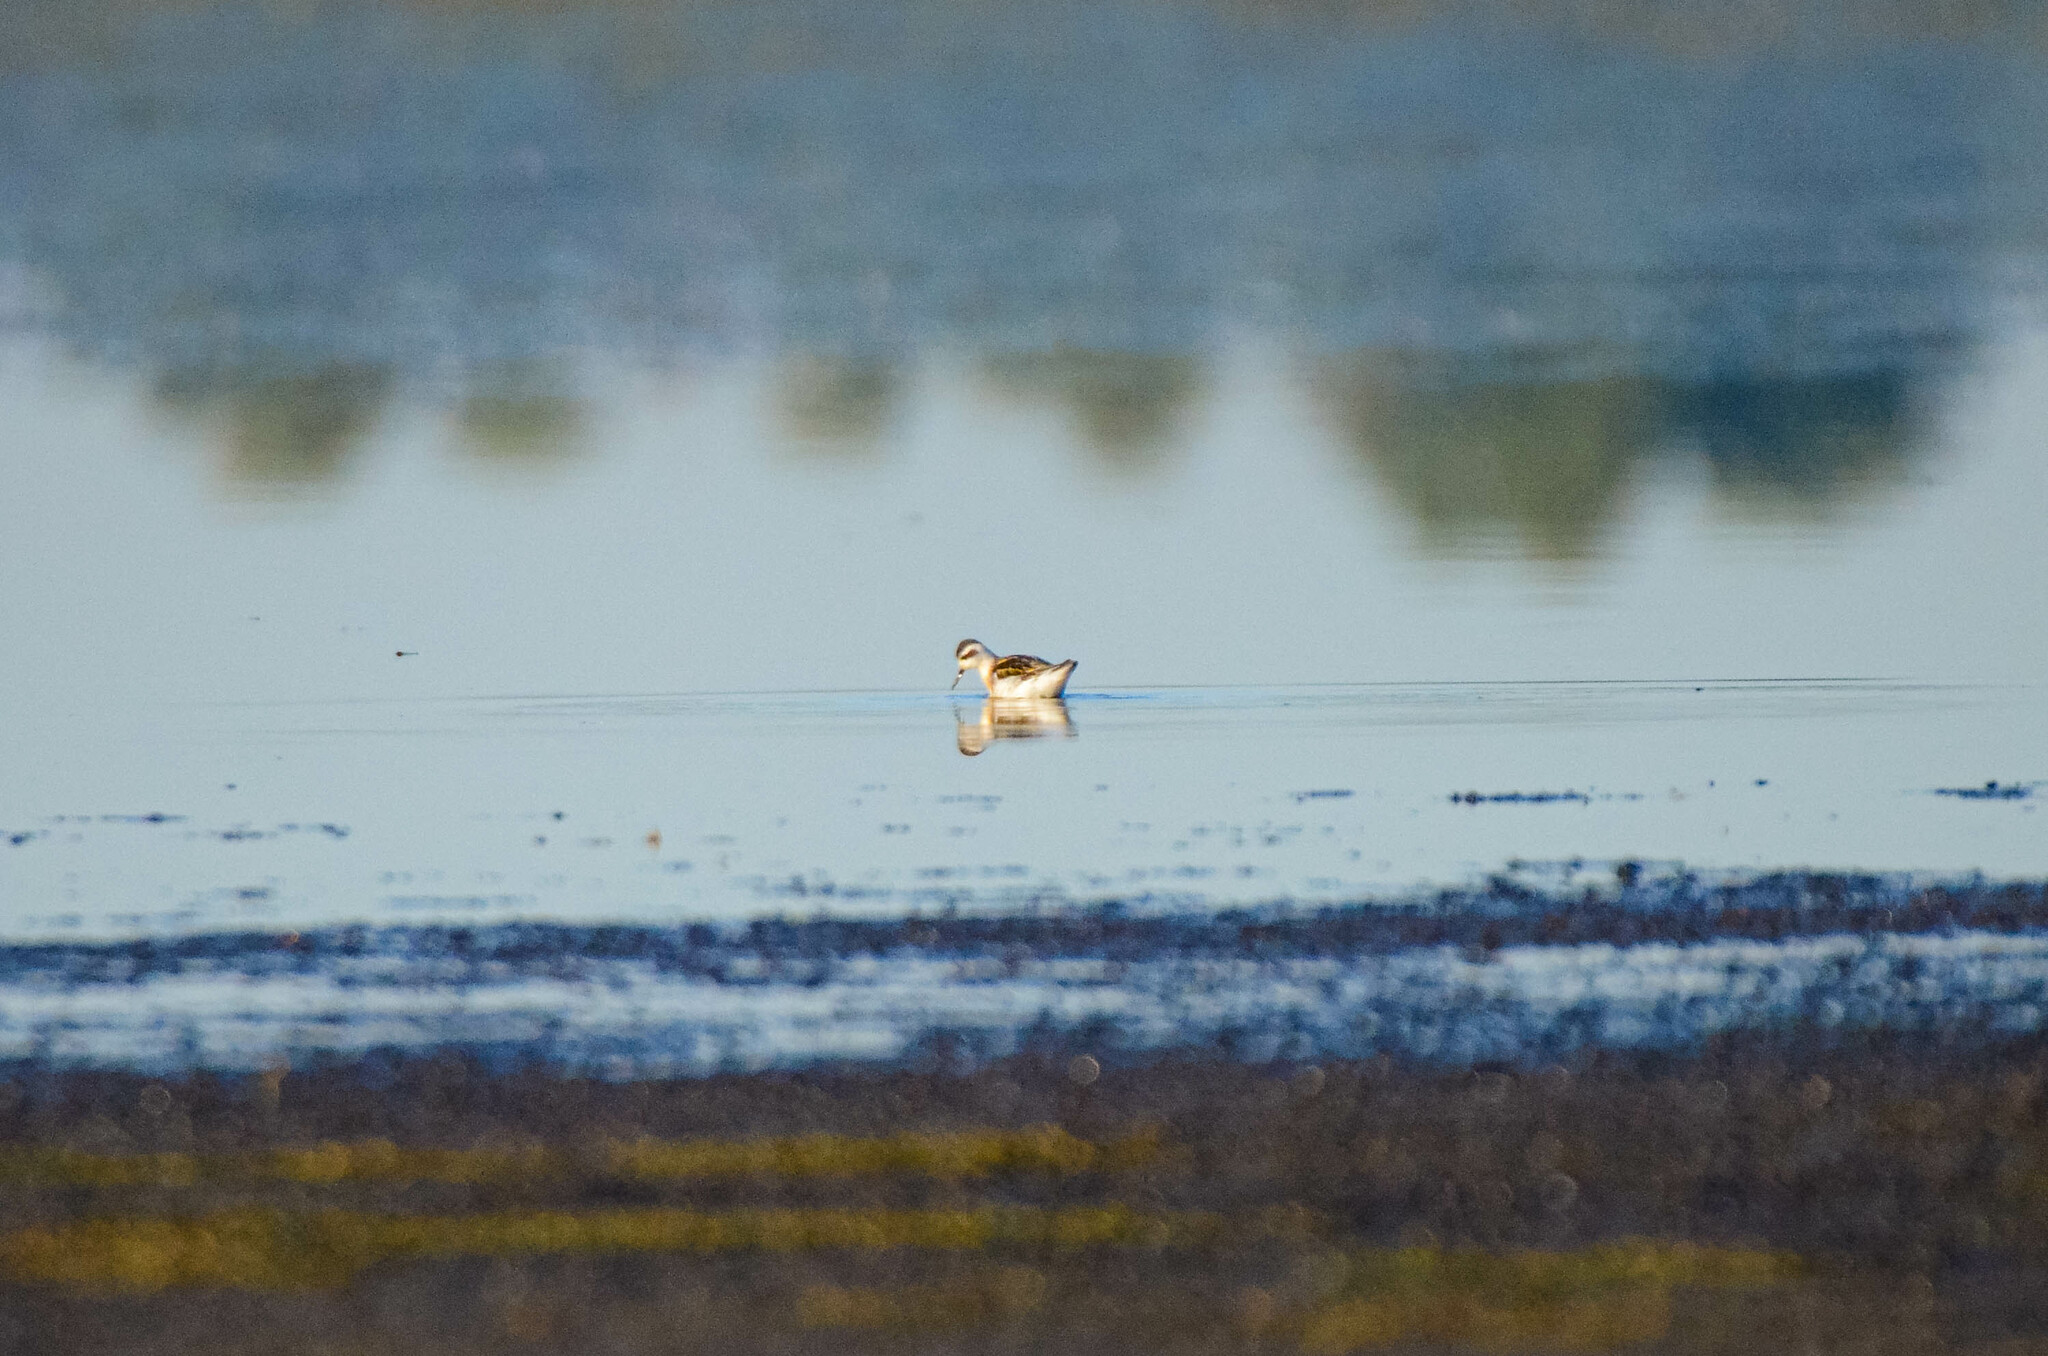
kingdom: Animalia
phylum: Chordata
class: Aves
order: Charadriiformes
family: Scolopacidae
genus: Phalaropus
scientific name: Phalaropus lobatus
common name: Red-necked phalarope
